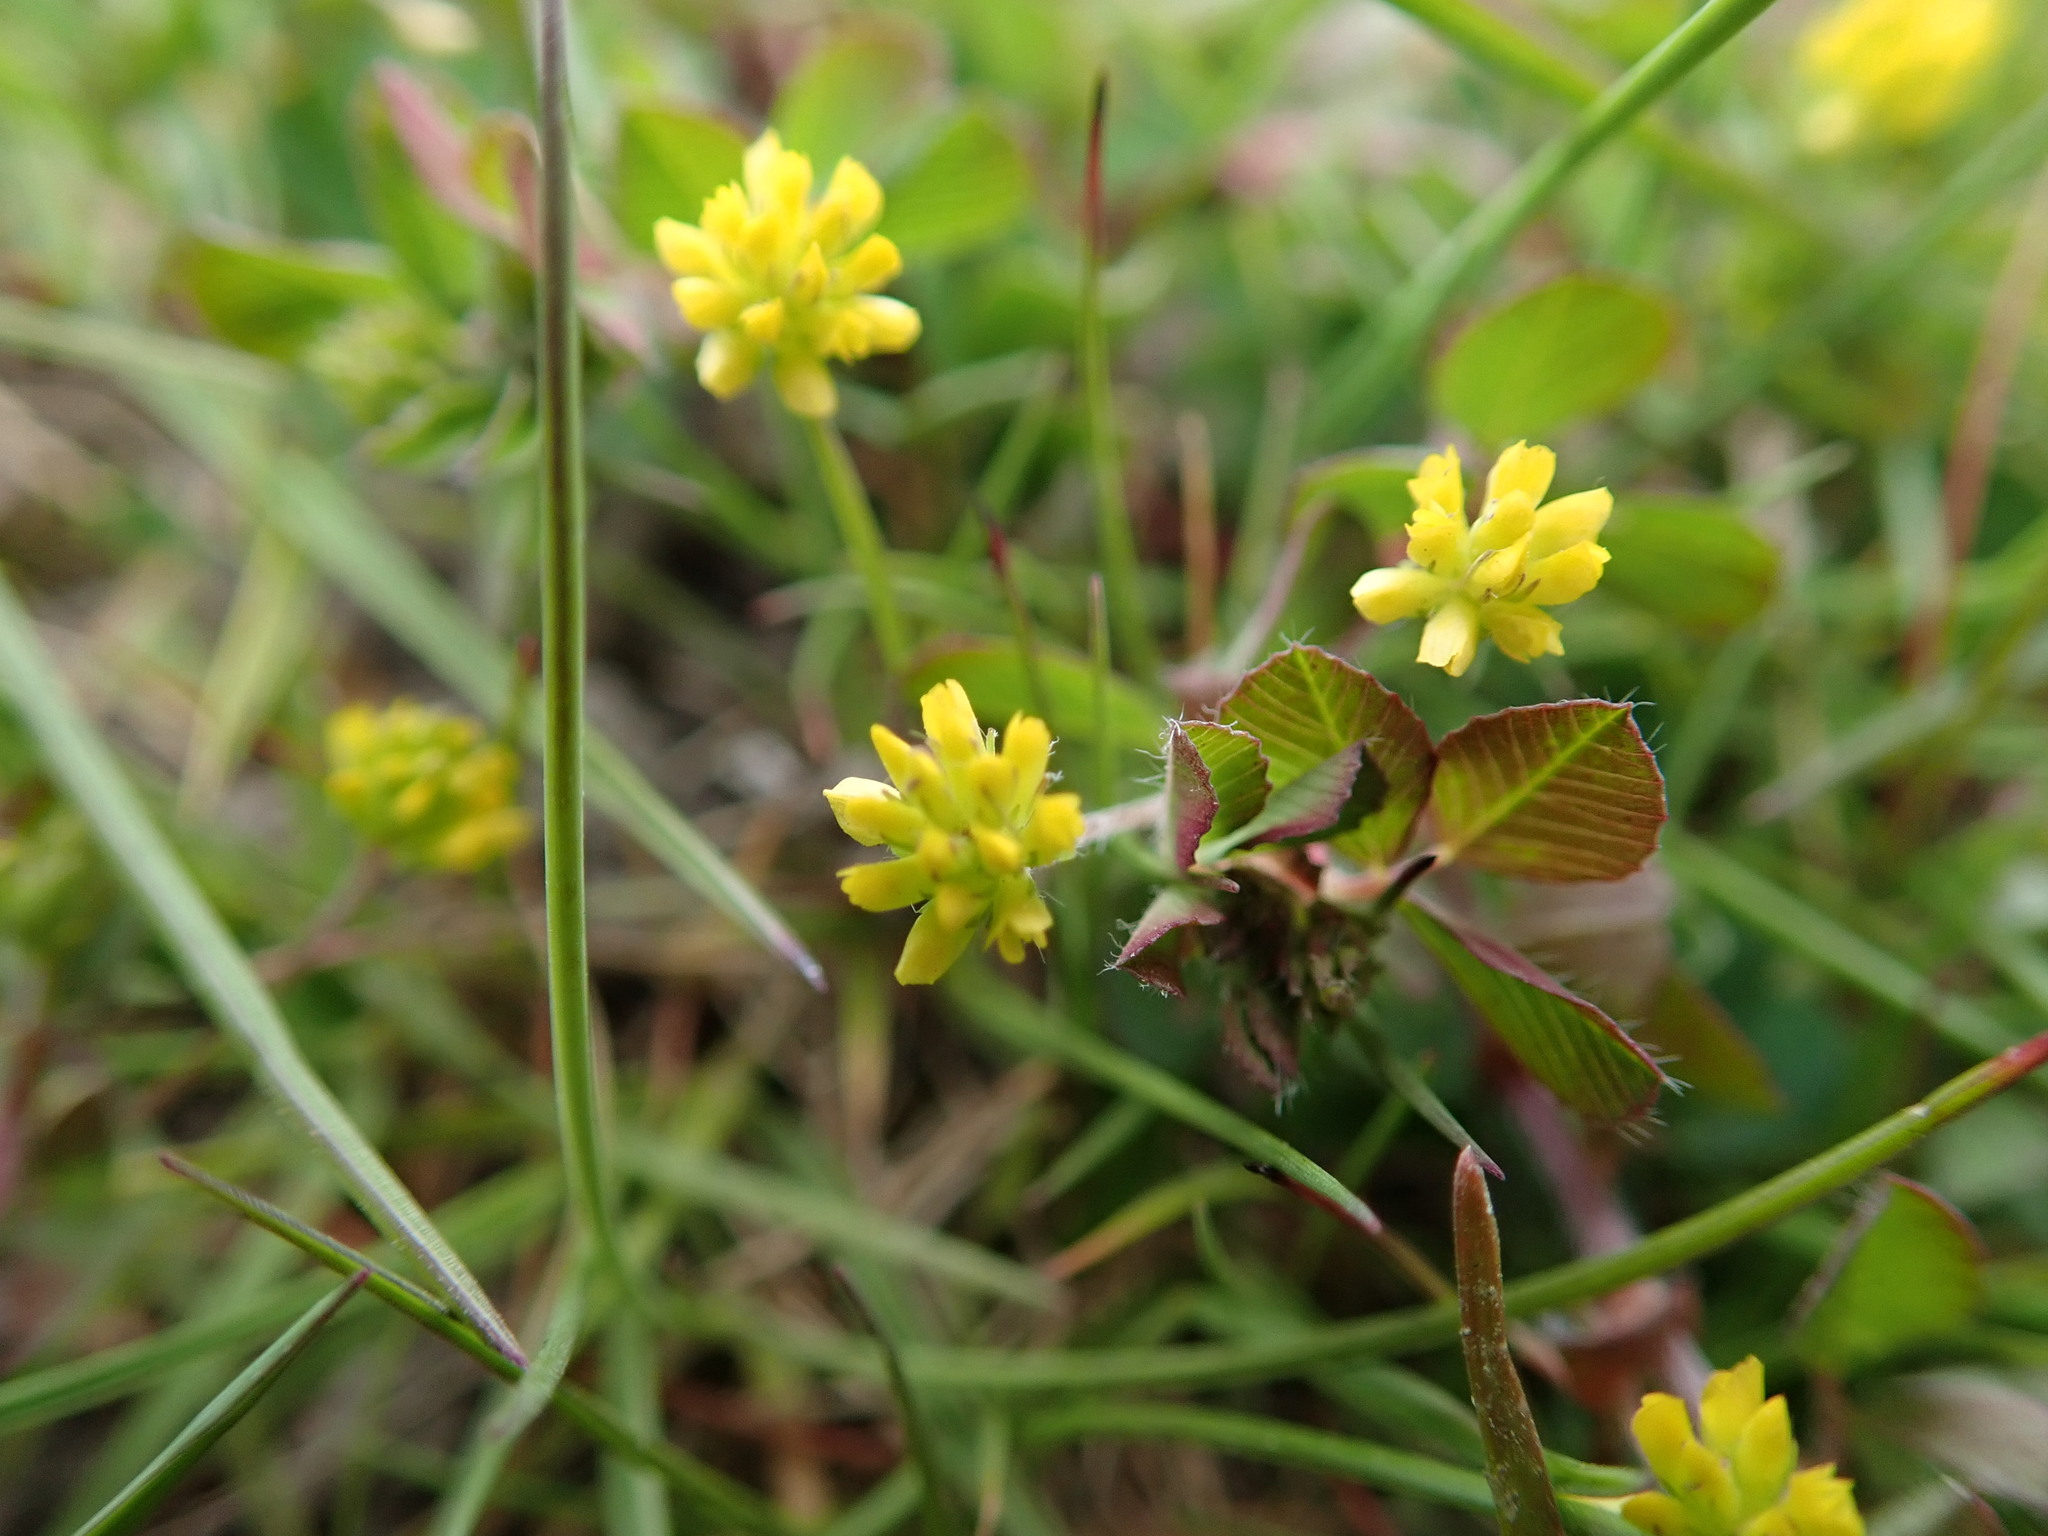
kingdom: Plantae
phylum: Tracheophyta
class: Magnoliopsida
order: Fabales
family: Fabaceae
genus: Trifolium
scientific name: Trifolium dubium
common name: Suckling clover
